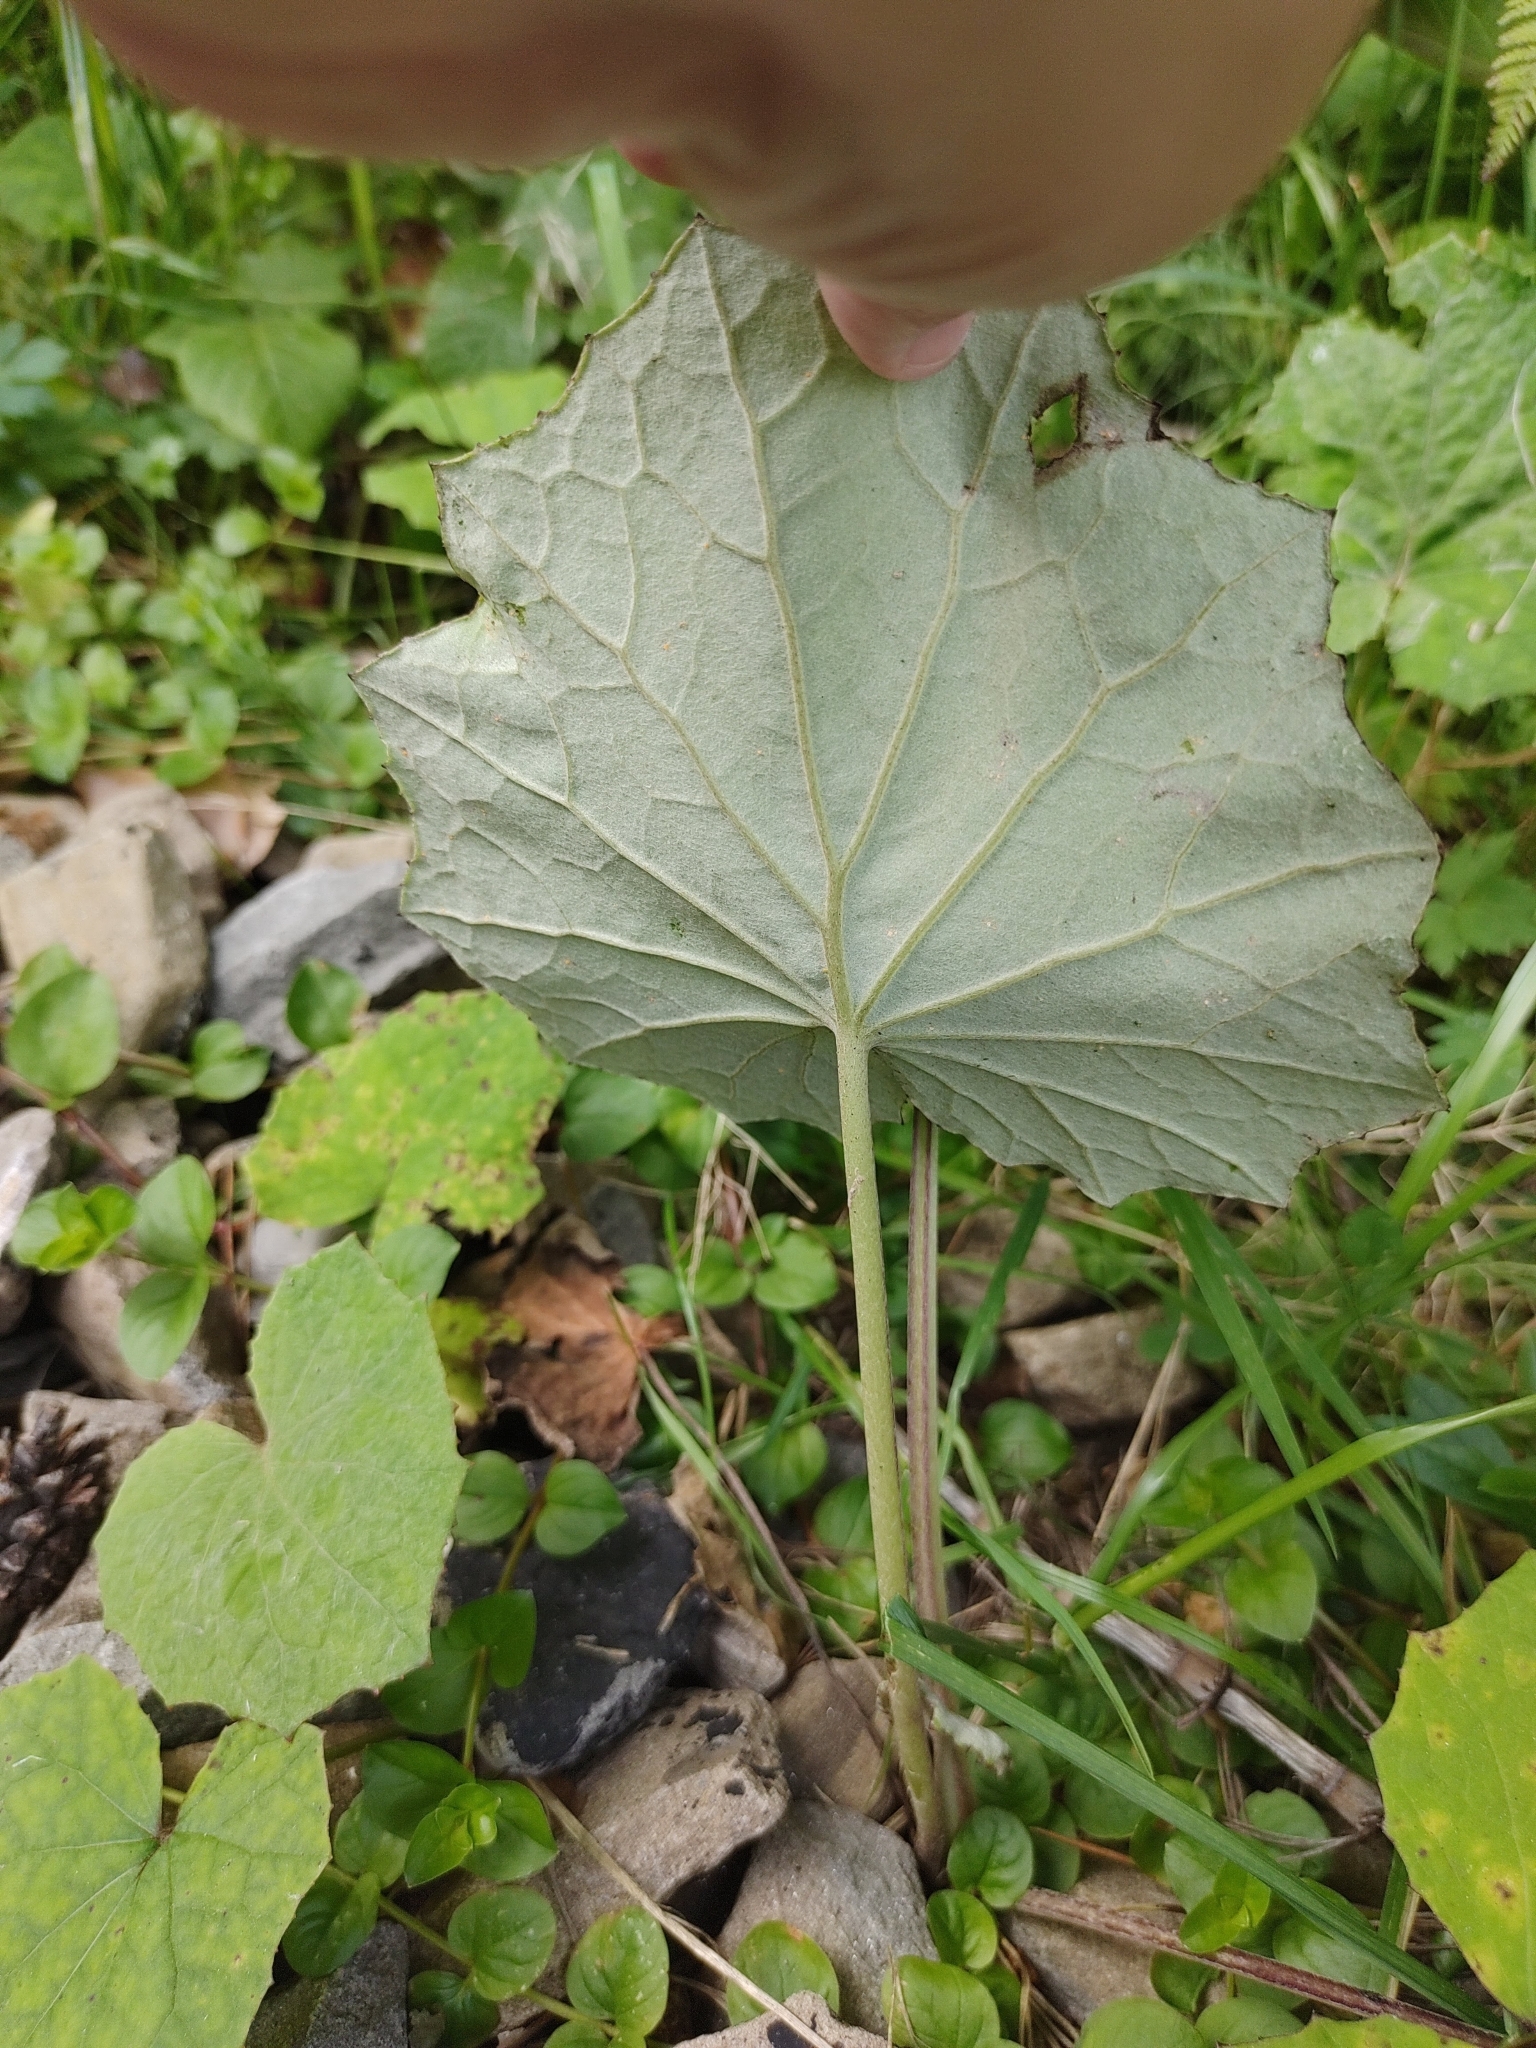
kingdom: Plantae
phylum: Tracheophyta
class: Magnoliopsida
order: Asterales
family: Asteraceae
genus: Tussilago
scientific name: Tussilago farfara
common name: Coltsfoot
